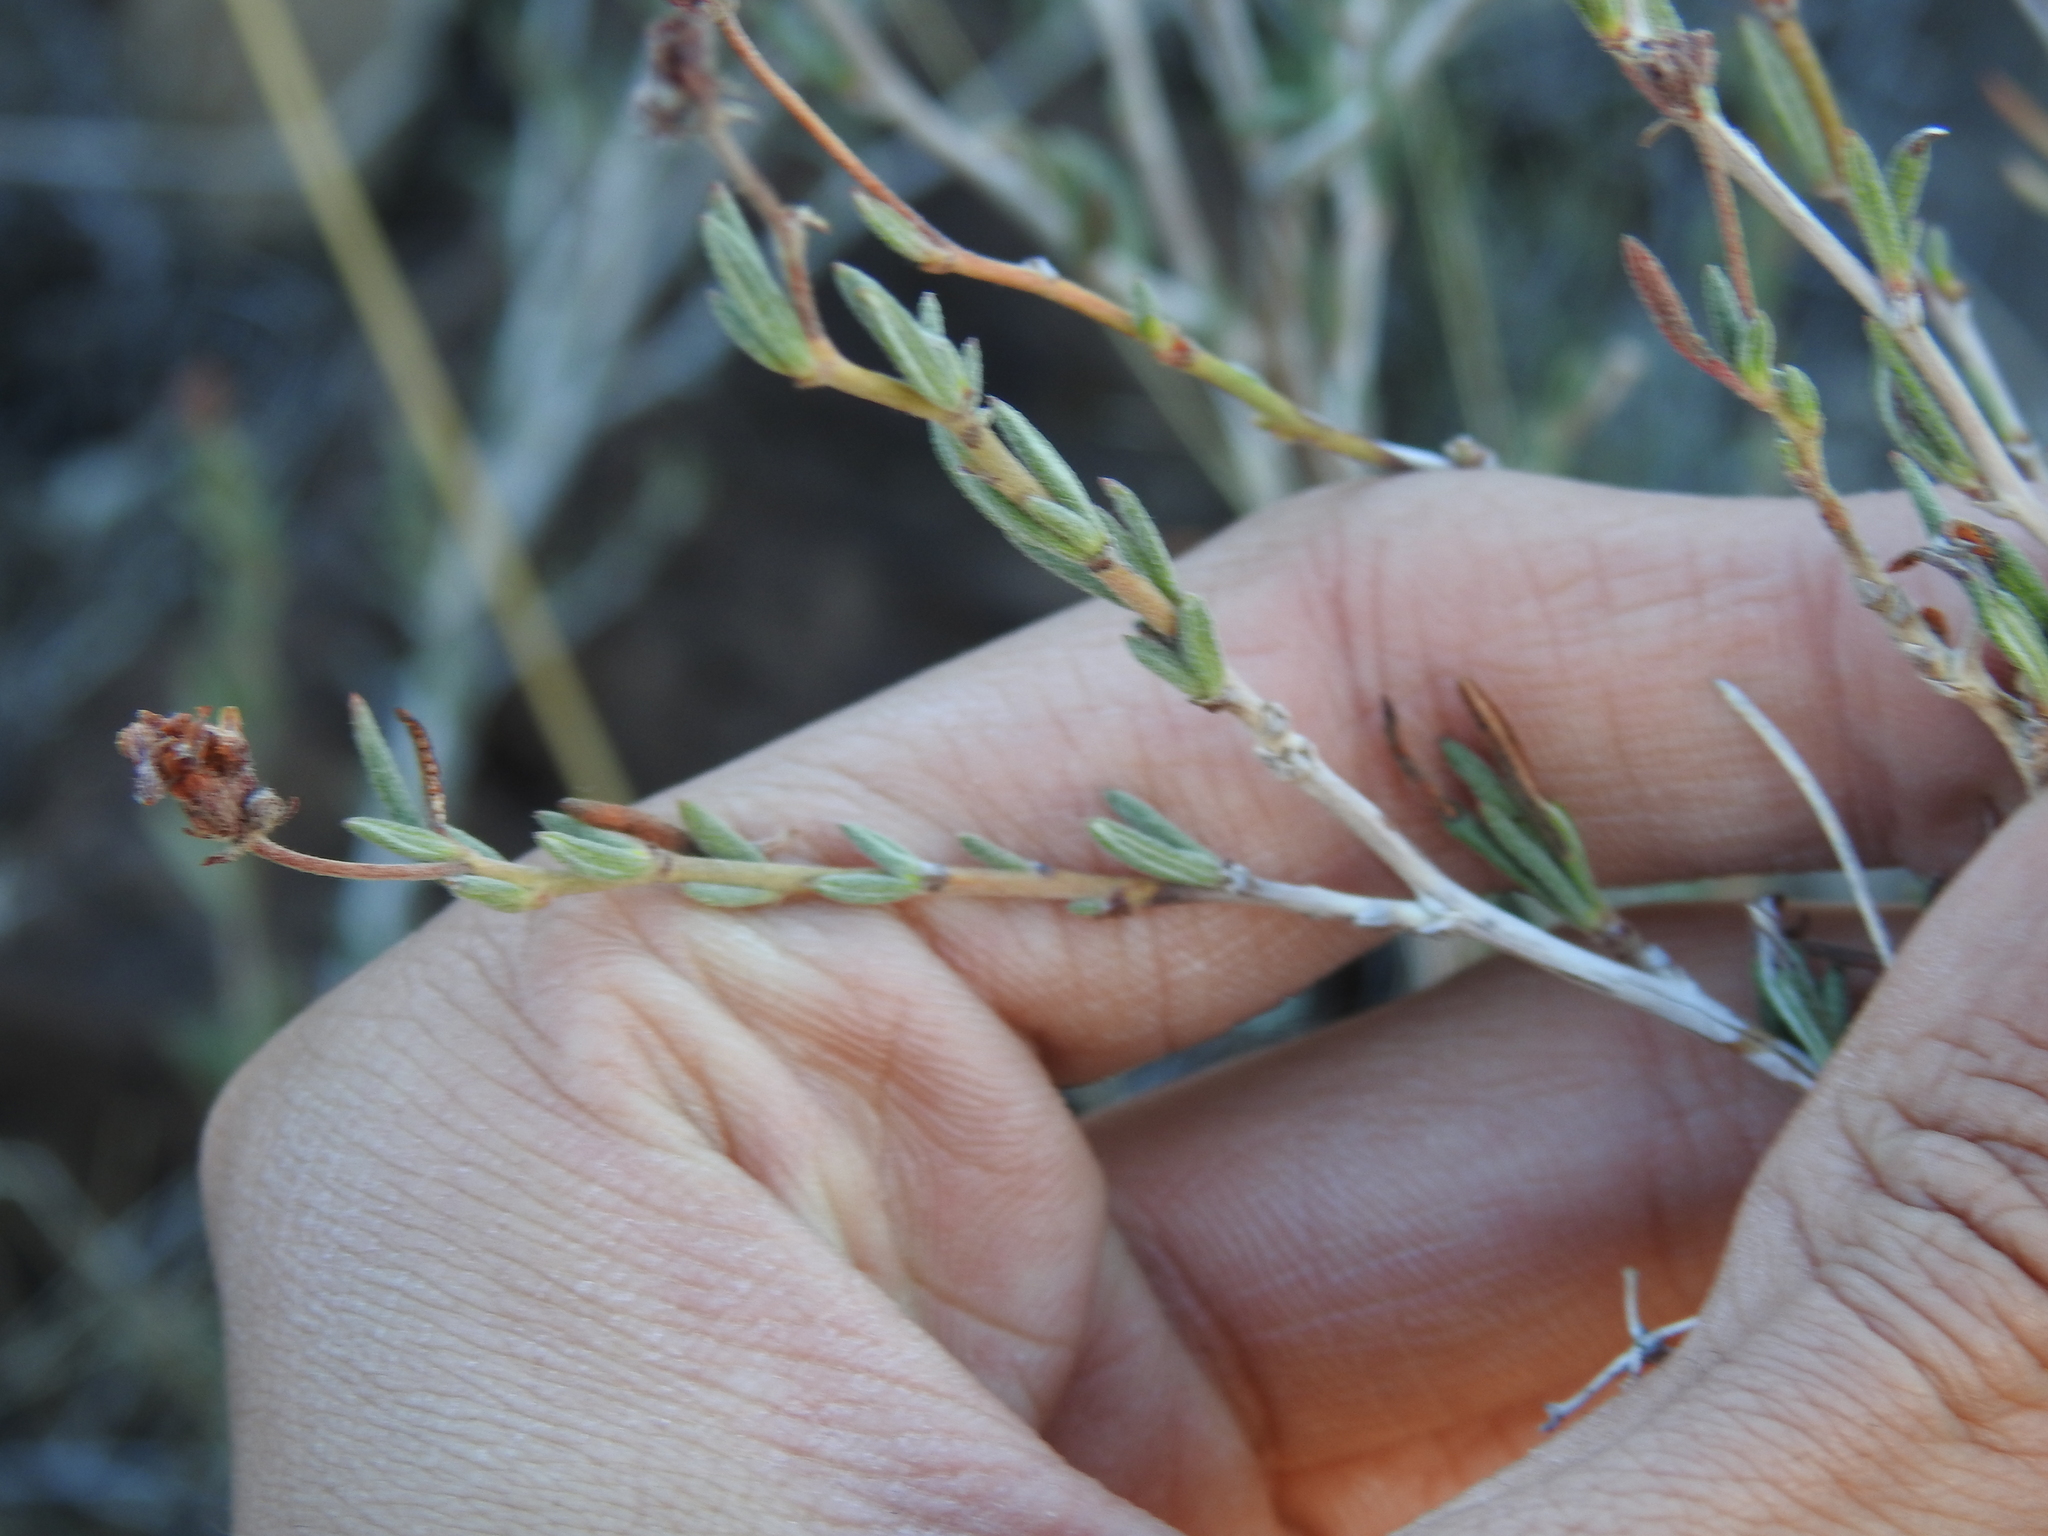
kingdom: Plantae
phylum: Tracheophyta
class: Magnoliopsida
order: Caryophyllales
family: Polygonaceae
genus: Eriogonum
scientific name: Eriogonum fasciculatum
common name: California wild buckwheat
